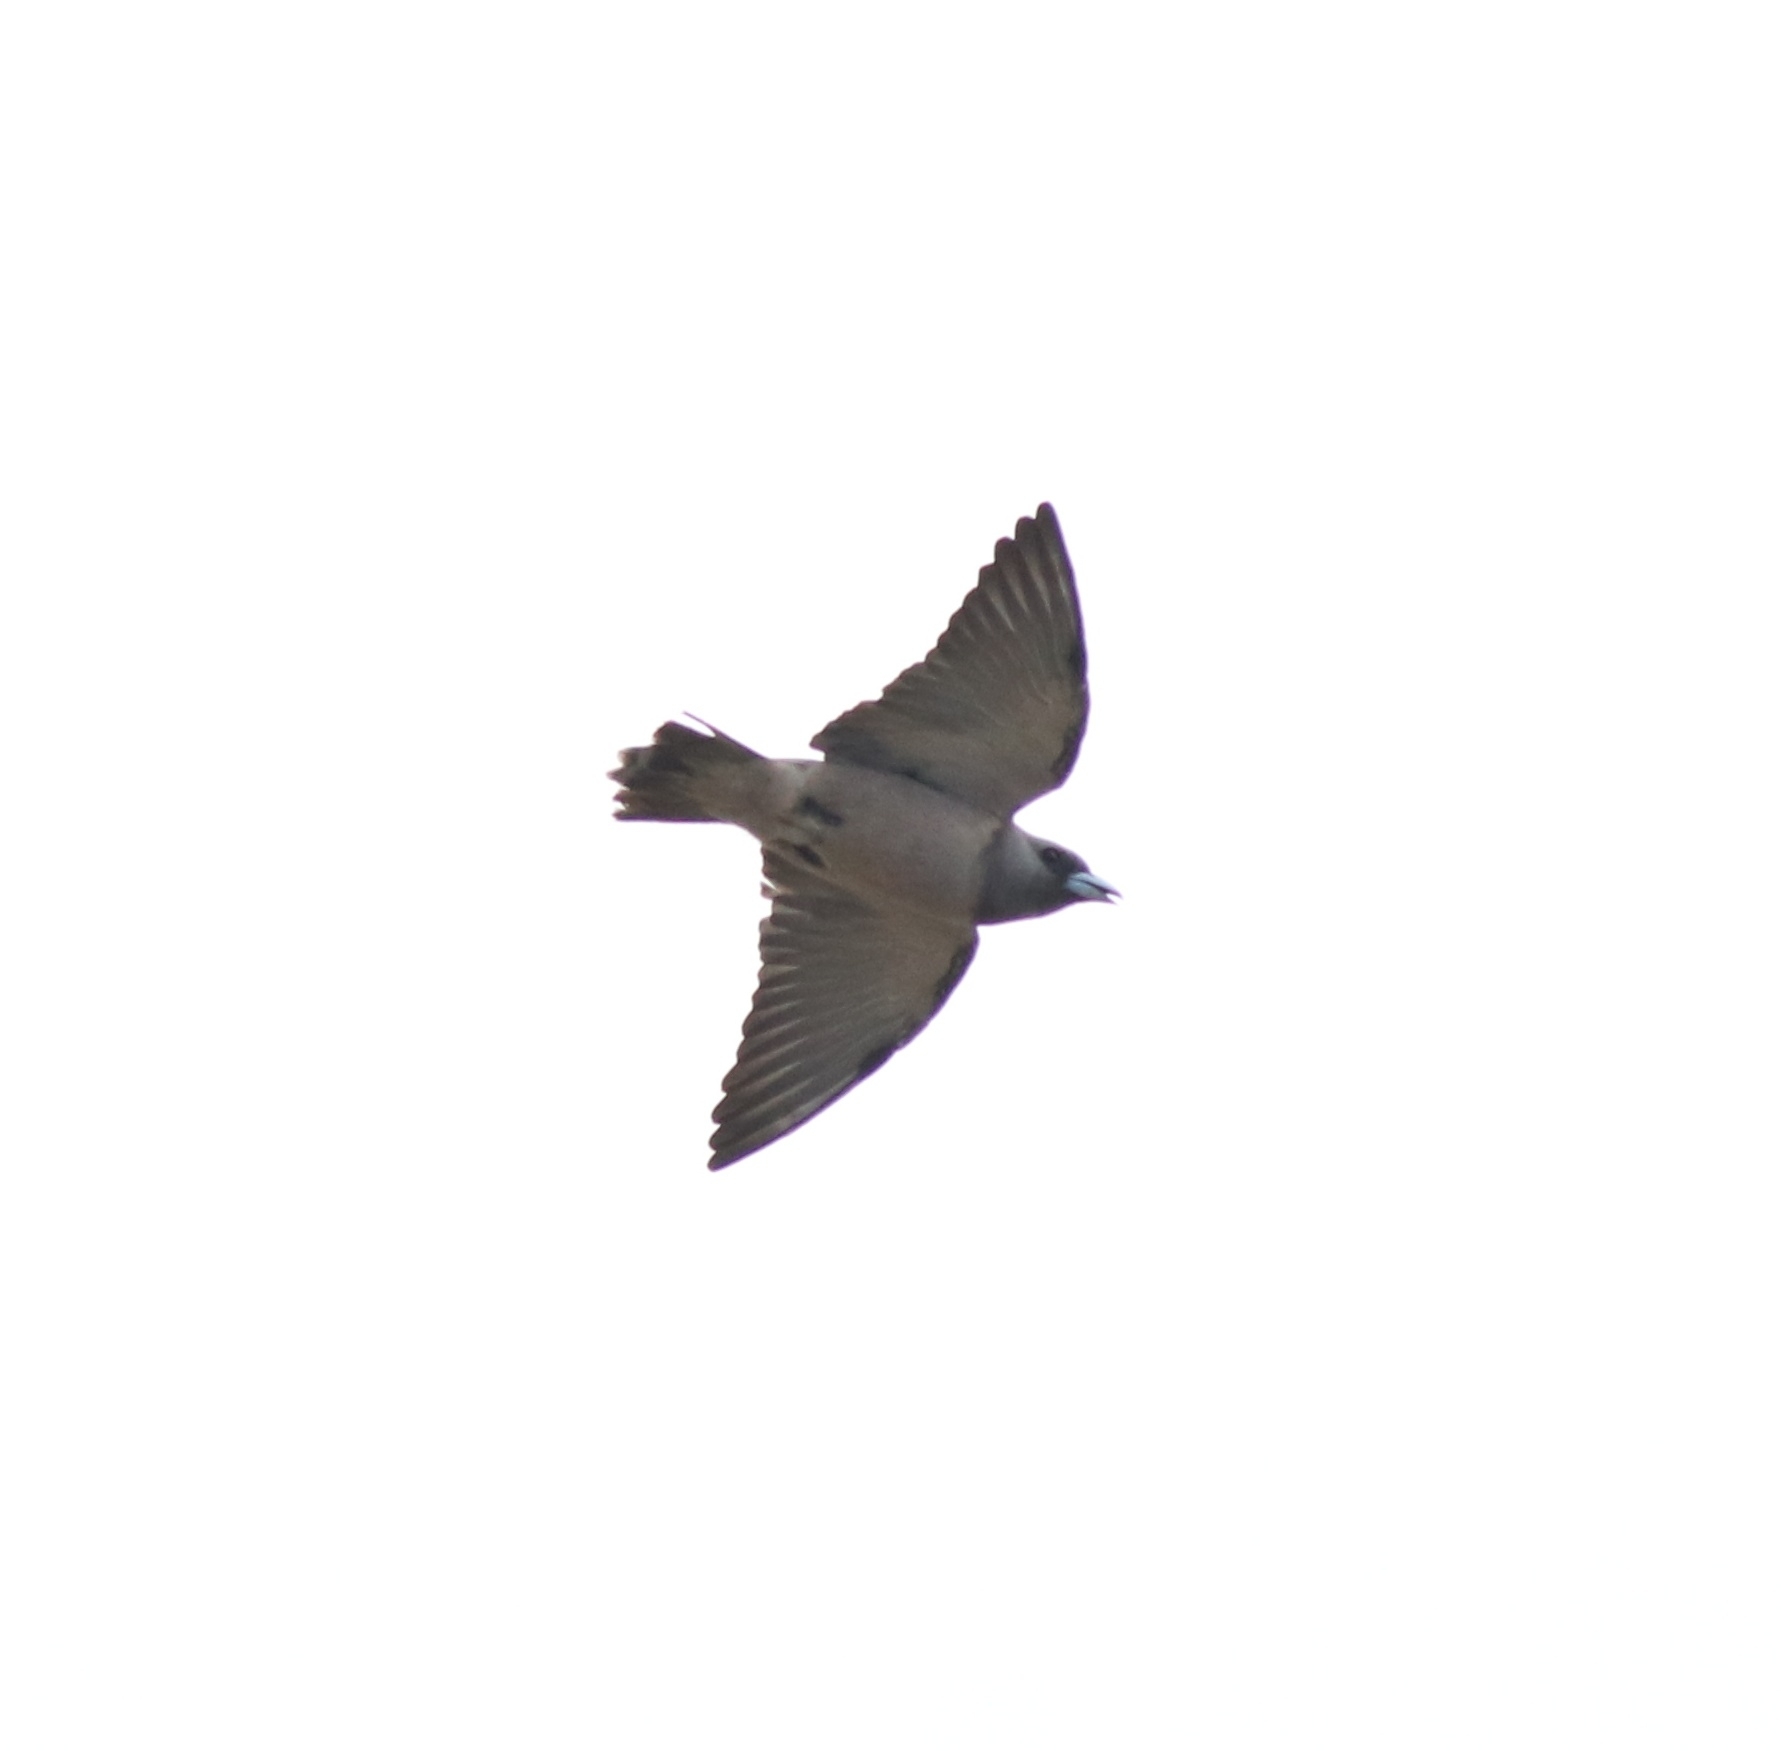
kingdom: Animalia
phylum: Chordata
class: Aves
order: Passeriformes
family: Artamidae
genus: Artamus
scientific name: Artamus fuscus
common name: Ashy woodswallow
